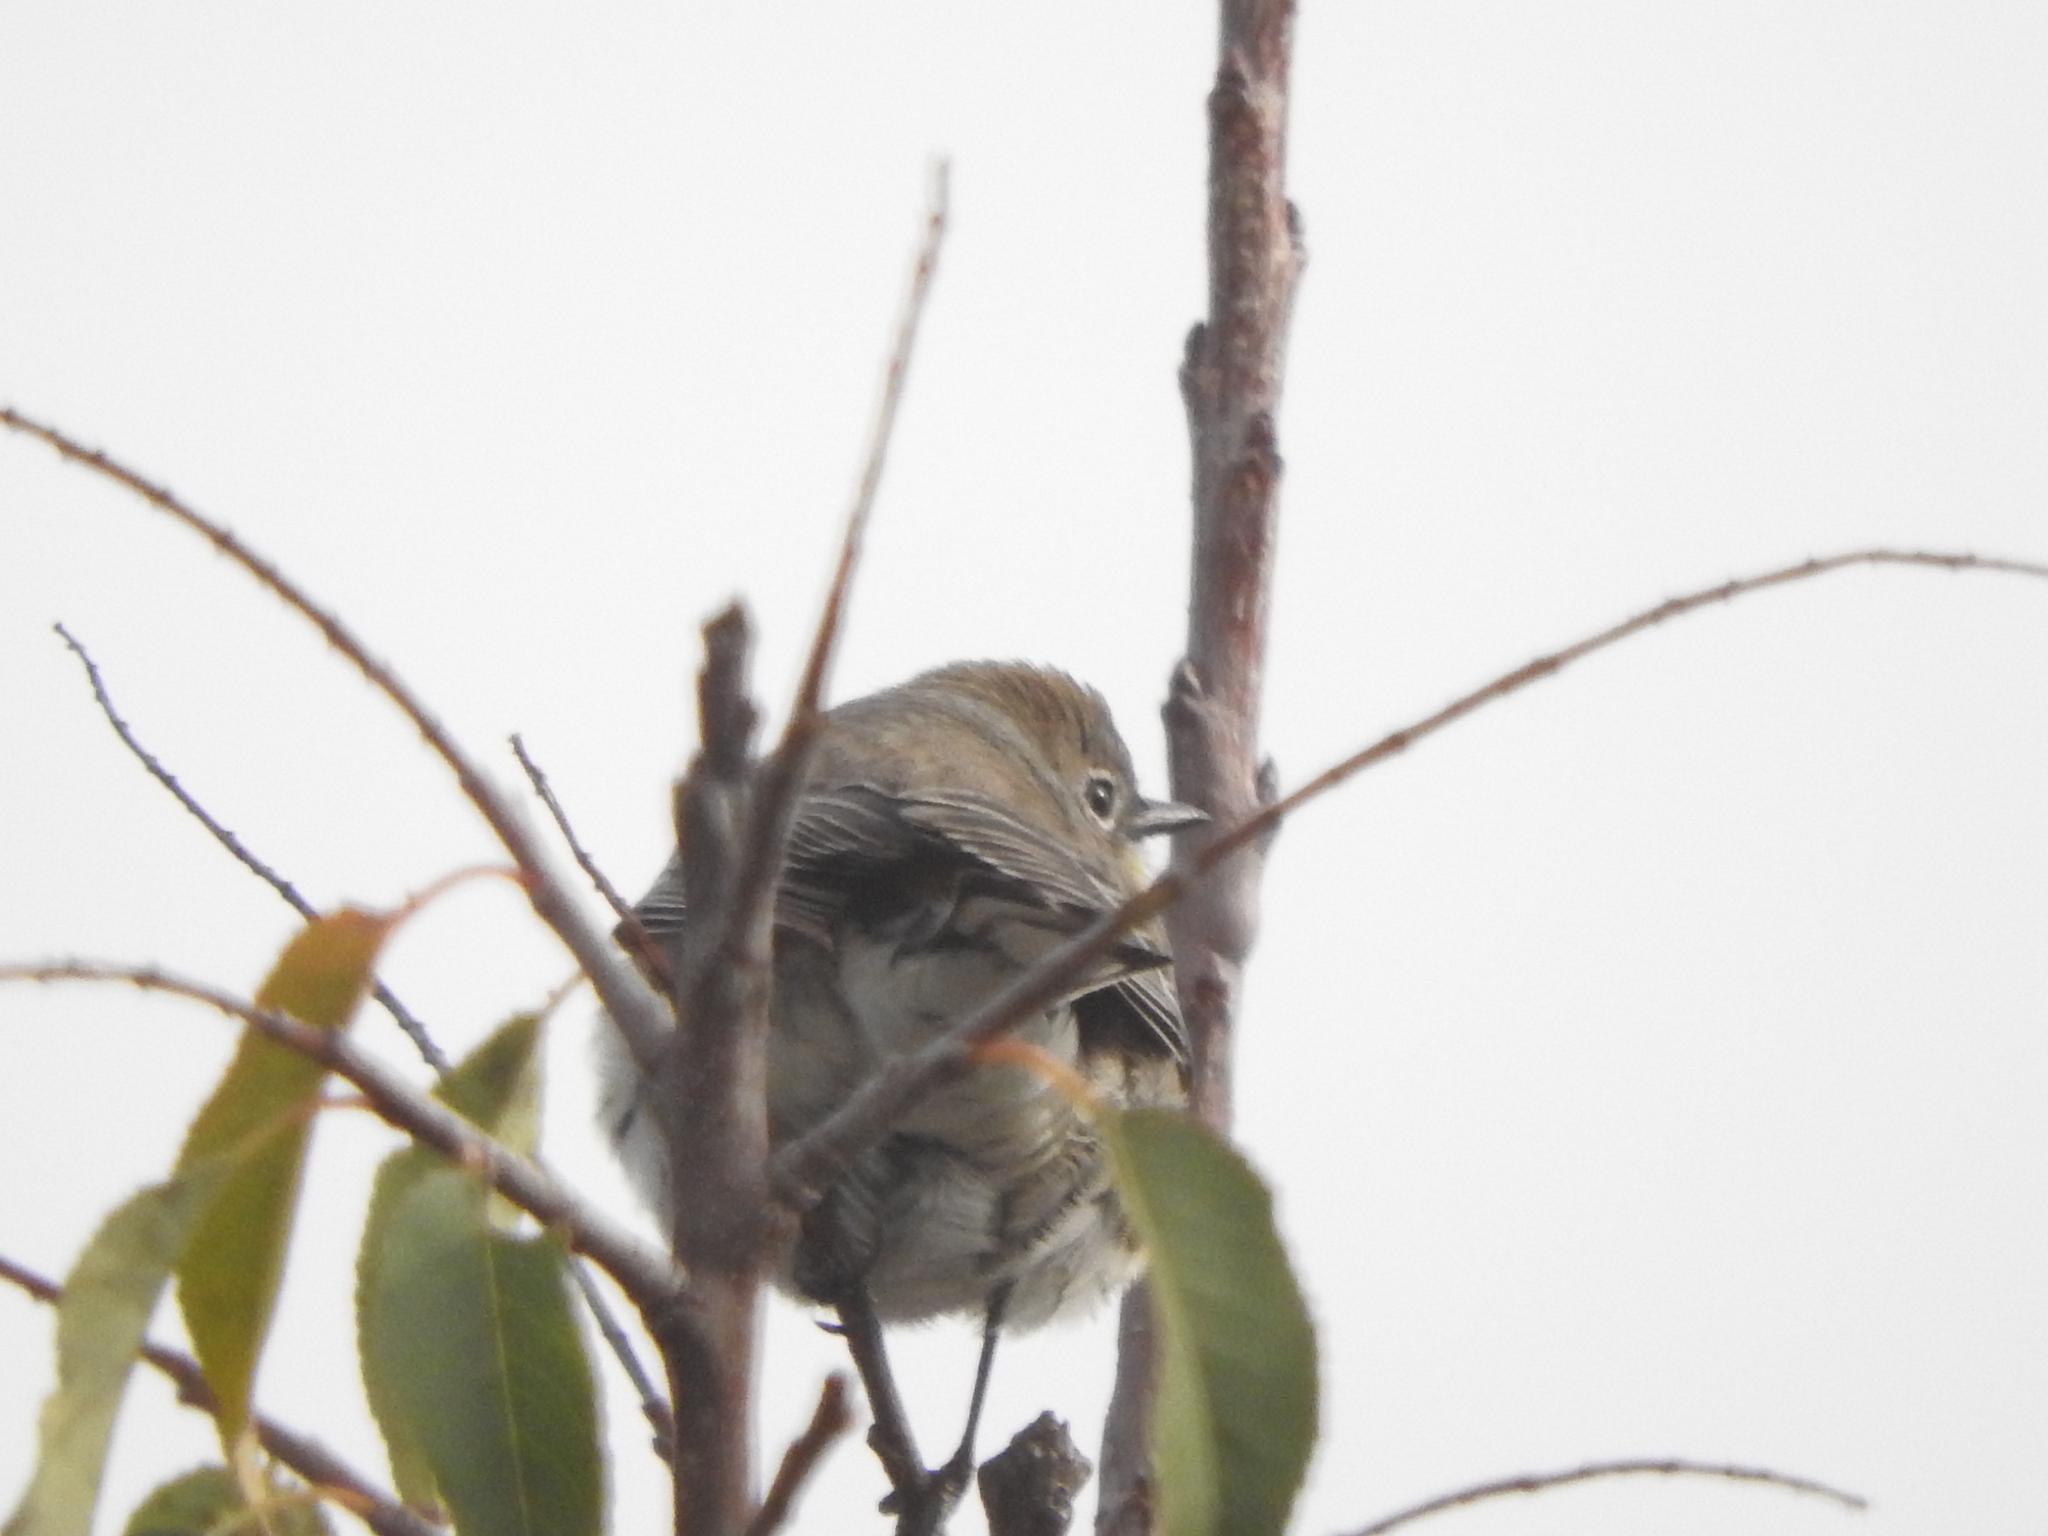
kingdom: Animalia
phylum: Chordata
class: Aves
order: Passeriformes
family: Parulidae
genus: Setophaga
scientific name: Setophaga coronata
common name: Myrtle warbler
